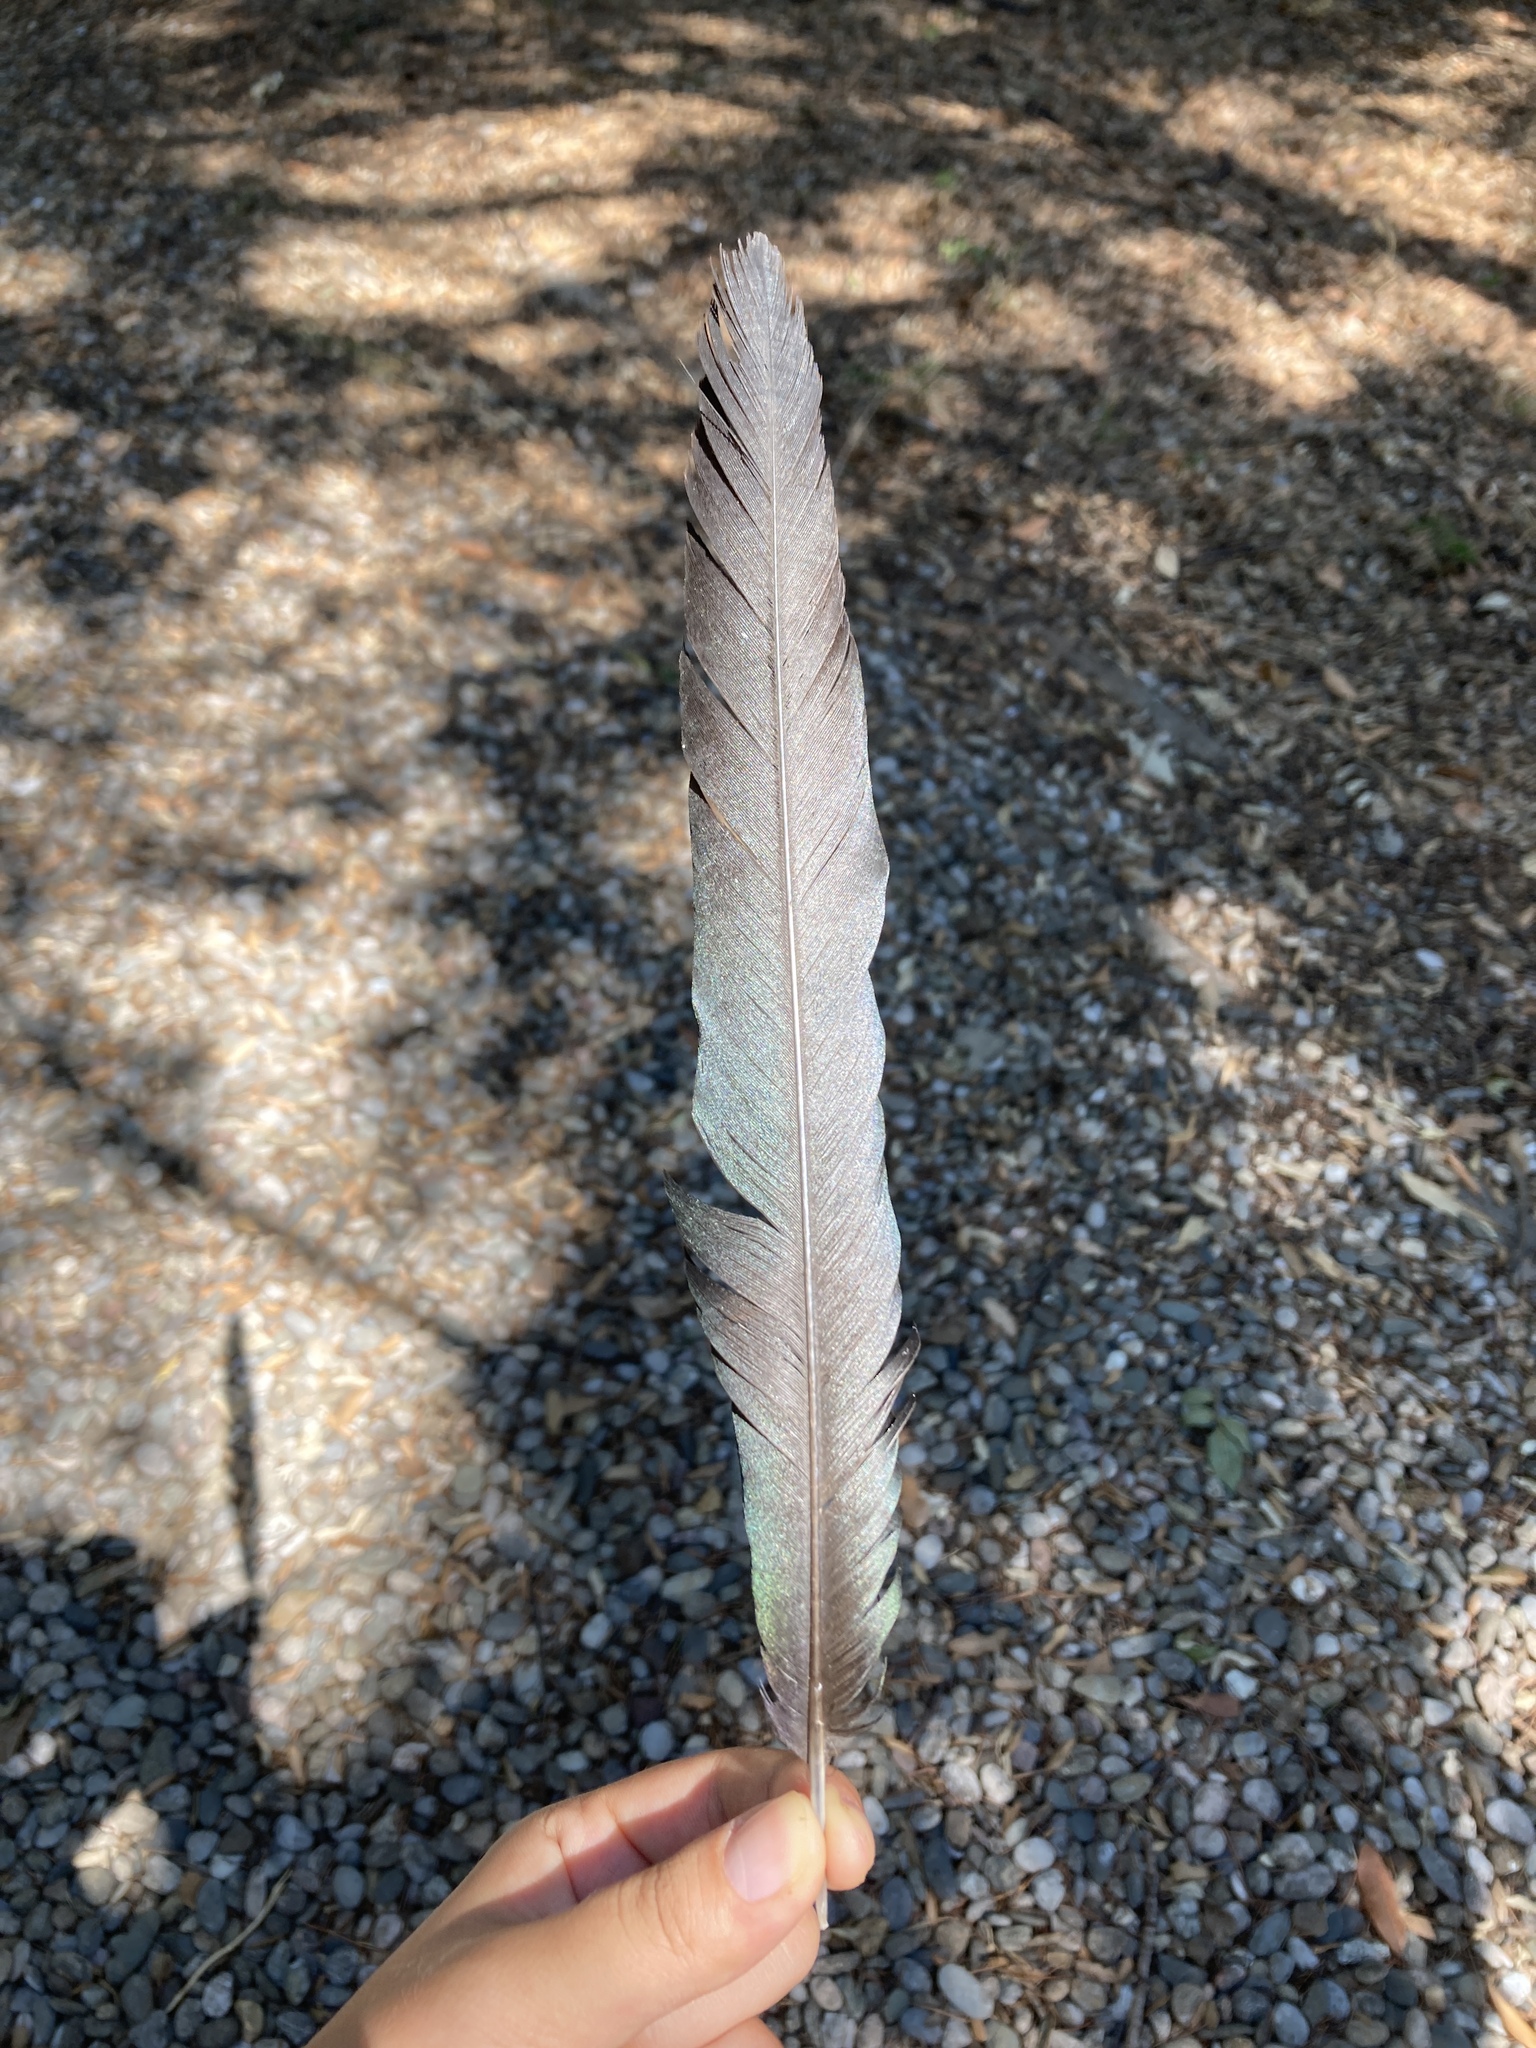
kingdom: Animalia
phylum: Chordata
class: Aves
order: Passeriformes
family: Corvidae
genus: Pica
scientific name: Pica pica
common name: Eurasian magpie
